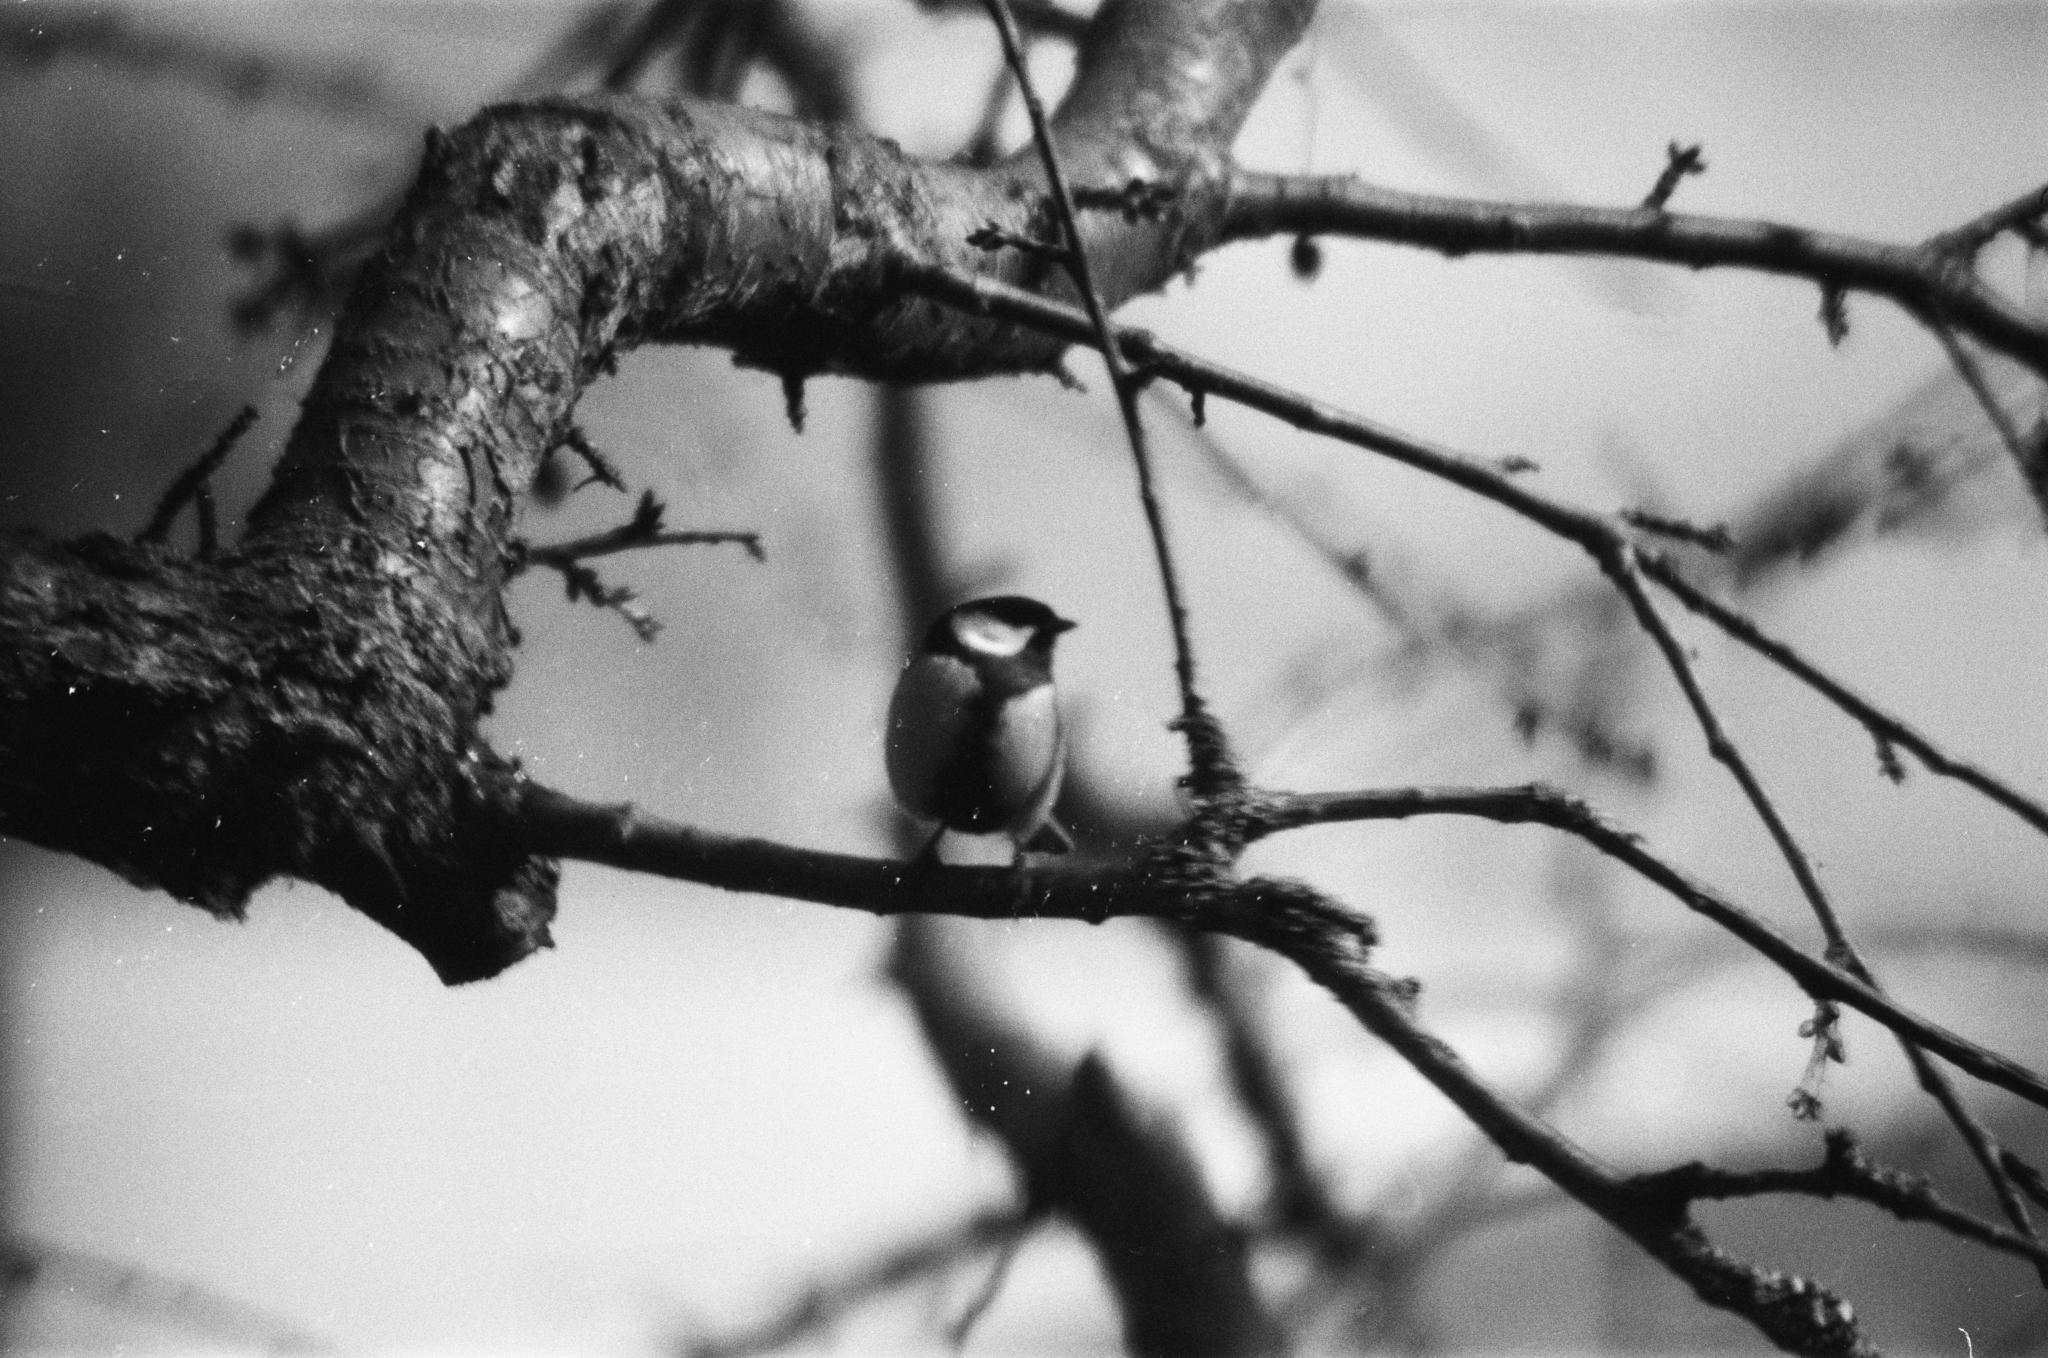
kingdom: Animalia
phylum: Chordata
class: Aves
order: Passeriformes
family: Paridae
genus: Parus
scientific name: Parus major
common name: Great tit
